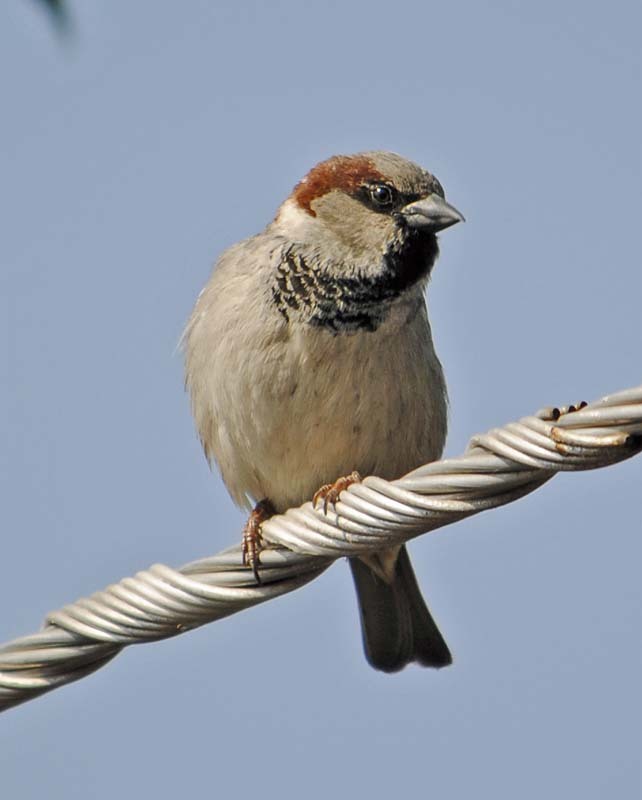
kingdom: Animalia
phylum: Chordata
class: Aves
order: Passeriformes
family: Passeridae
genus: Passer
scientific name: Passer domesticus
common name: House sparrow
